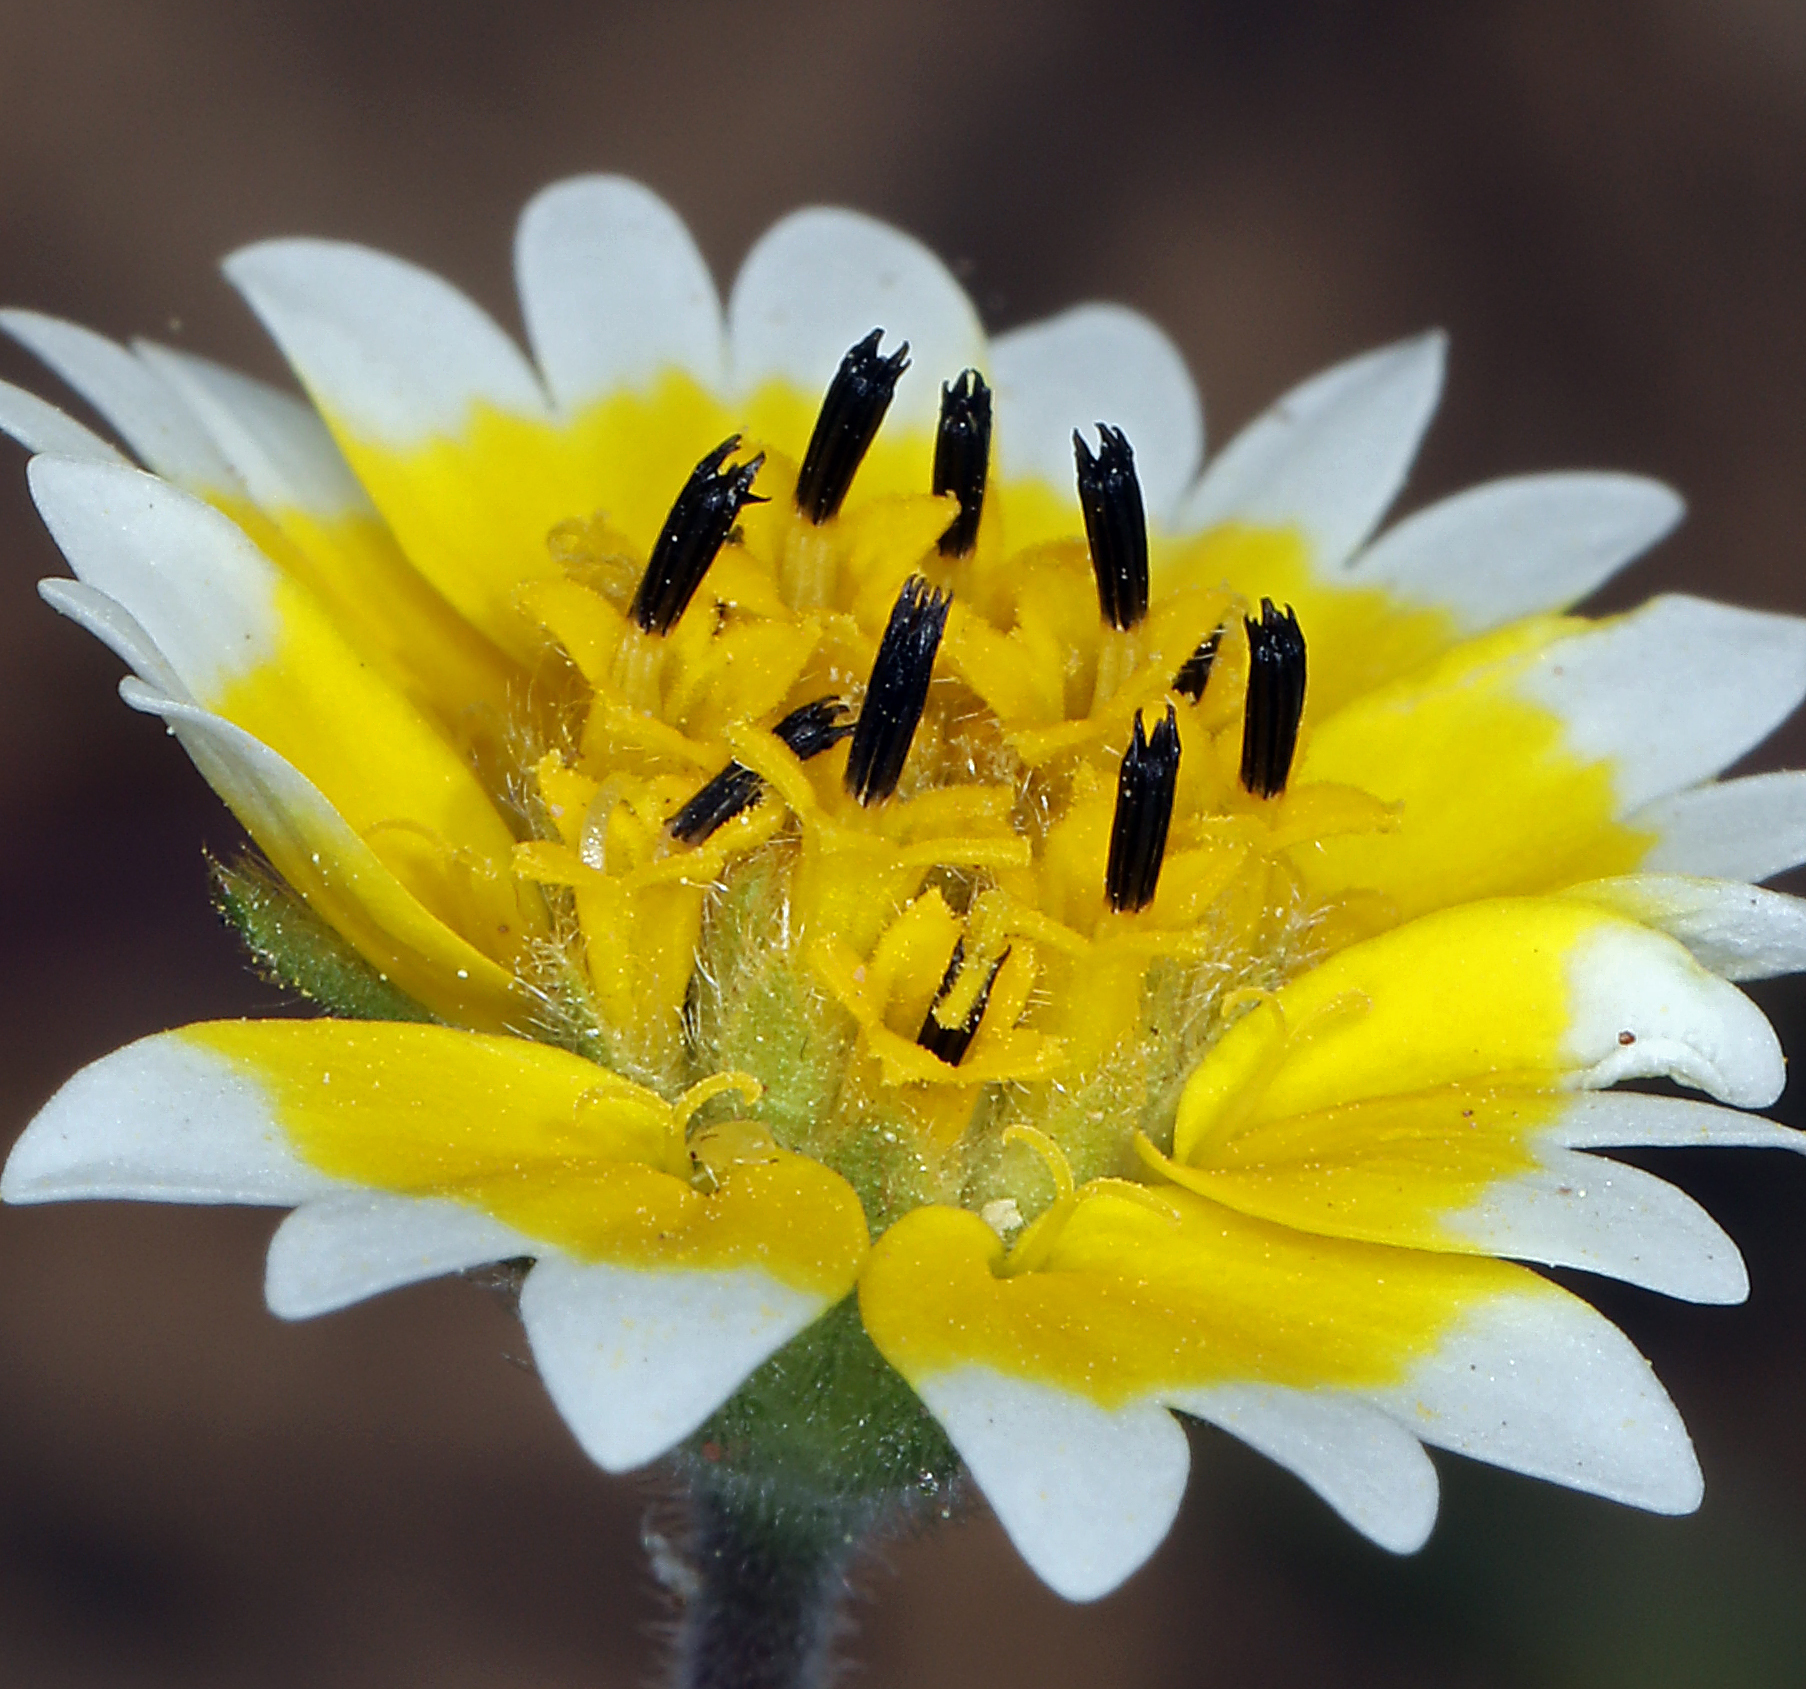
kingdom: Plantae
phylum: Tracheophyta
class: Magnoliopsida
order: Asterales
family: Asteraceae
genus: Layia
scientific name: Layia fremontii
